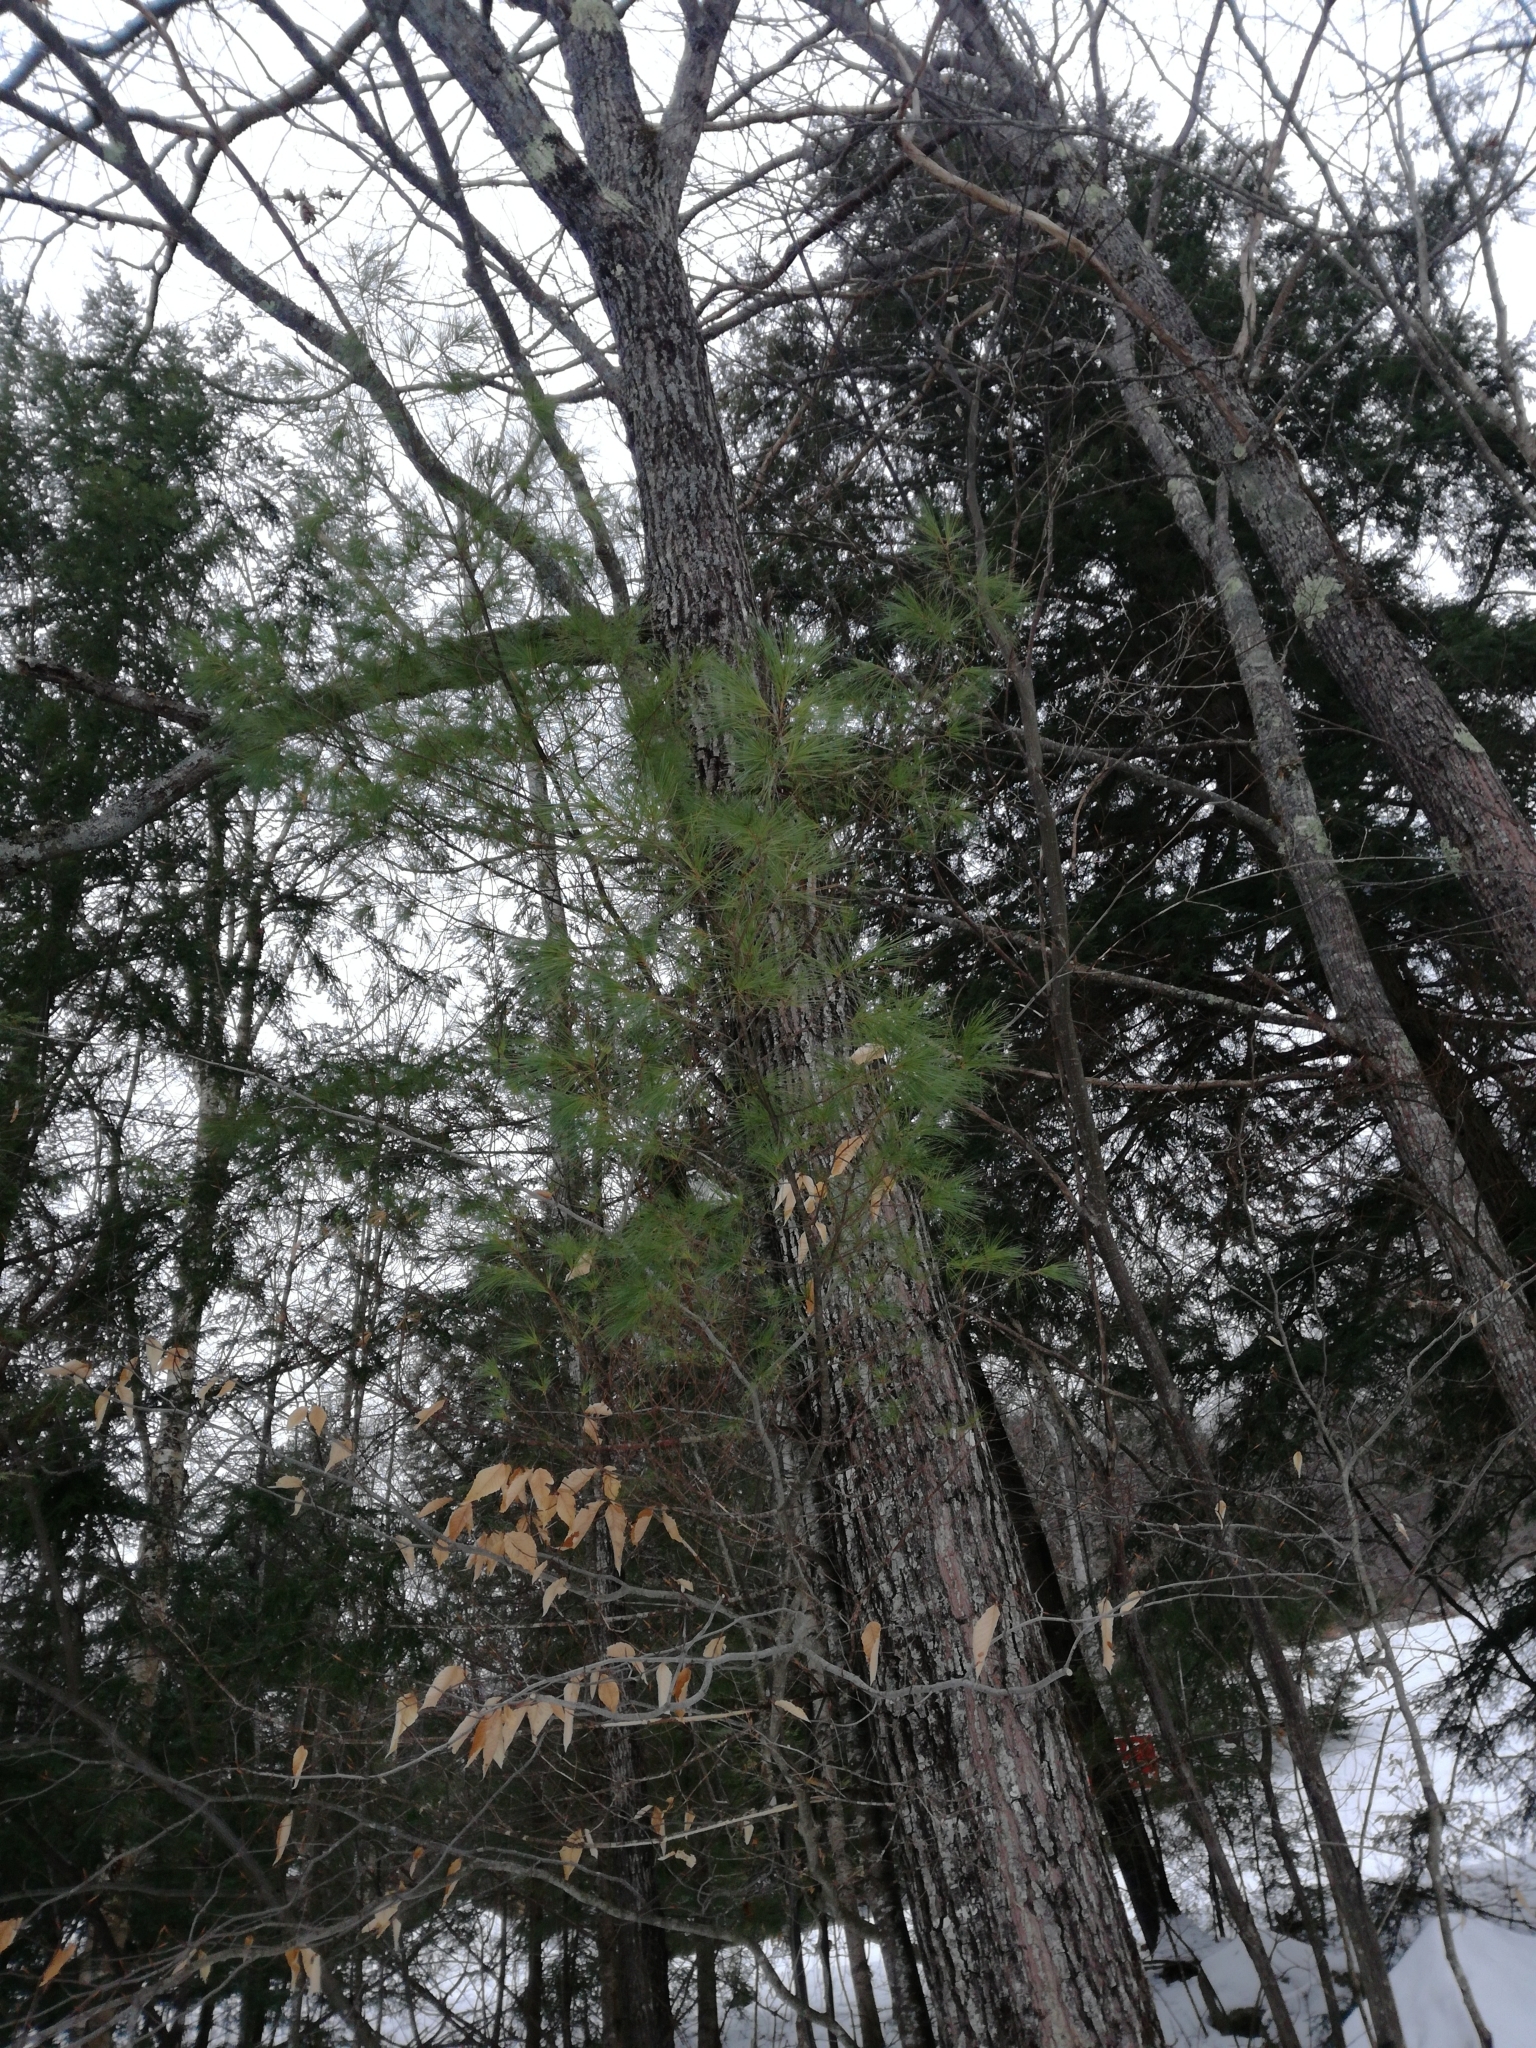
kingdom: Plantae
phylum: Tracheophyta
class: Pinopsida
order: Pinales
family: Pinaceae
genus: Pinus
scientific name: Pinus strobus
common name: Weymouth pine
